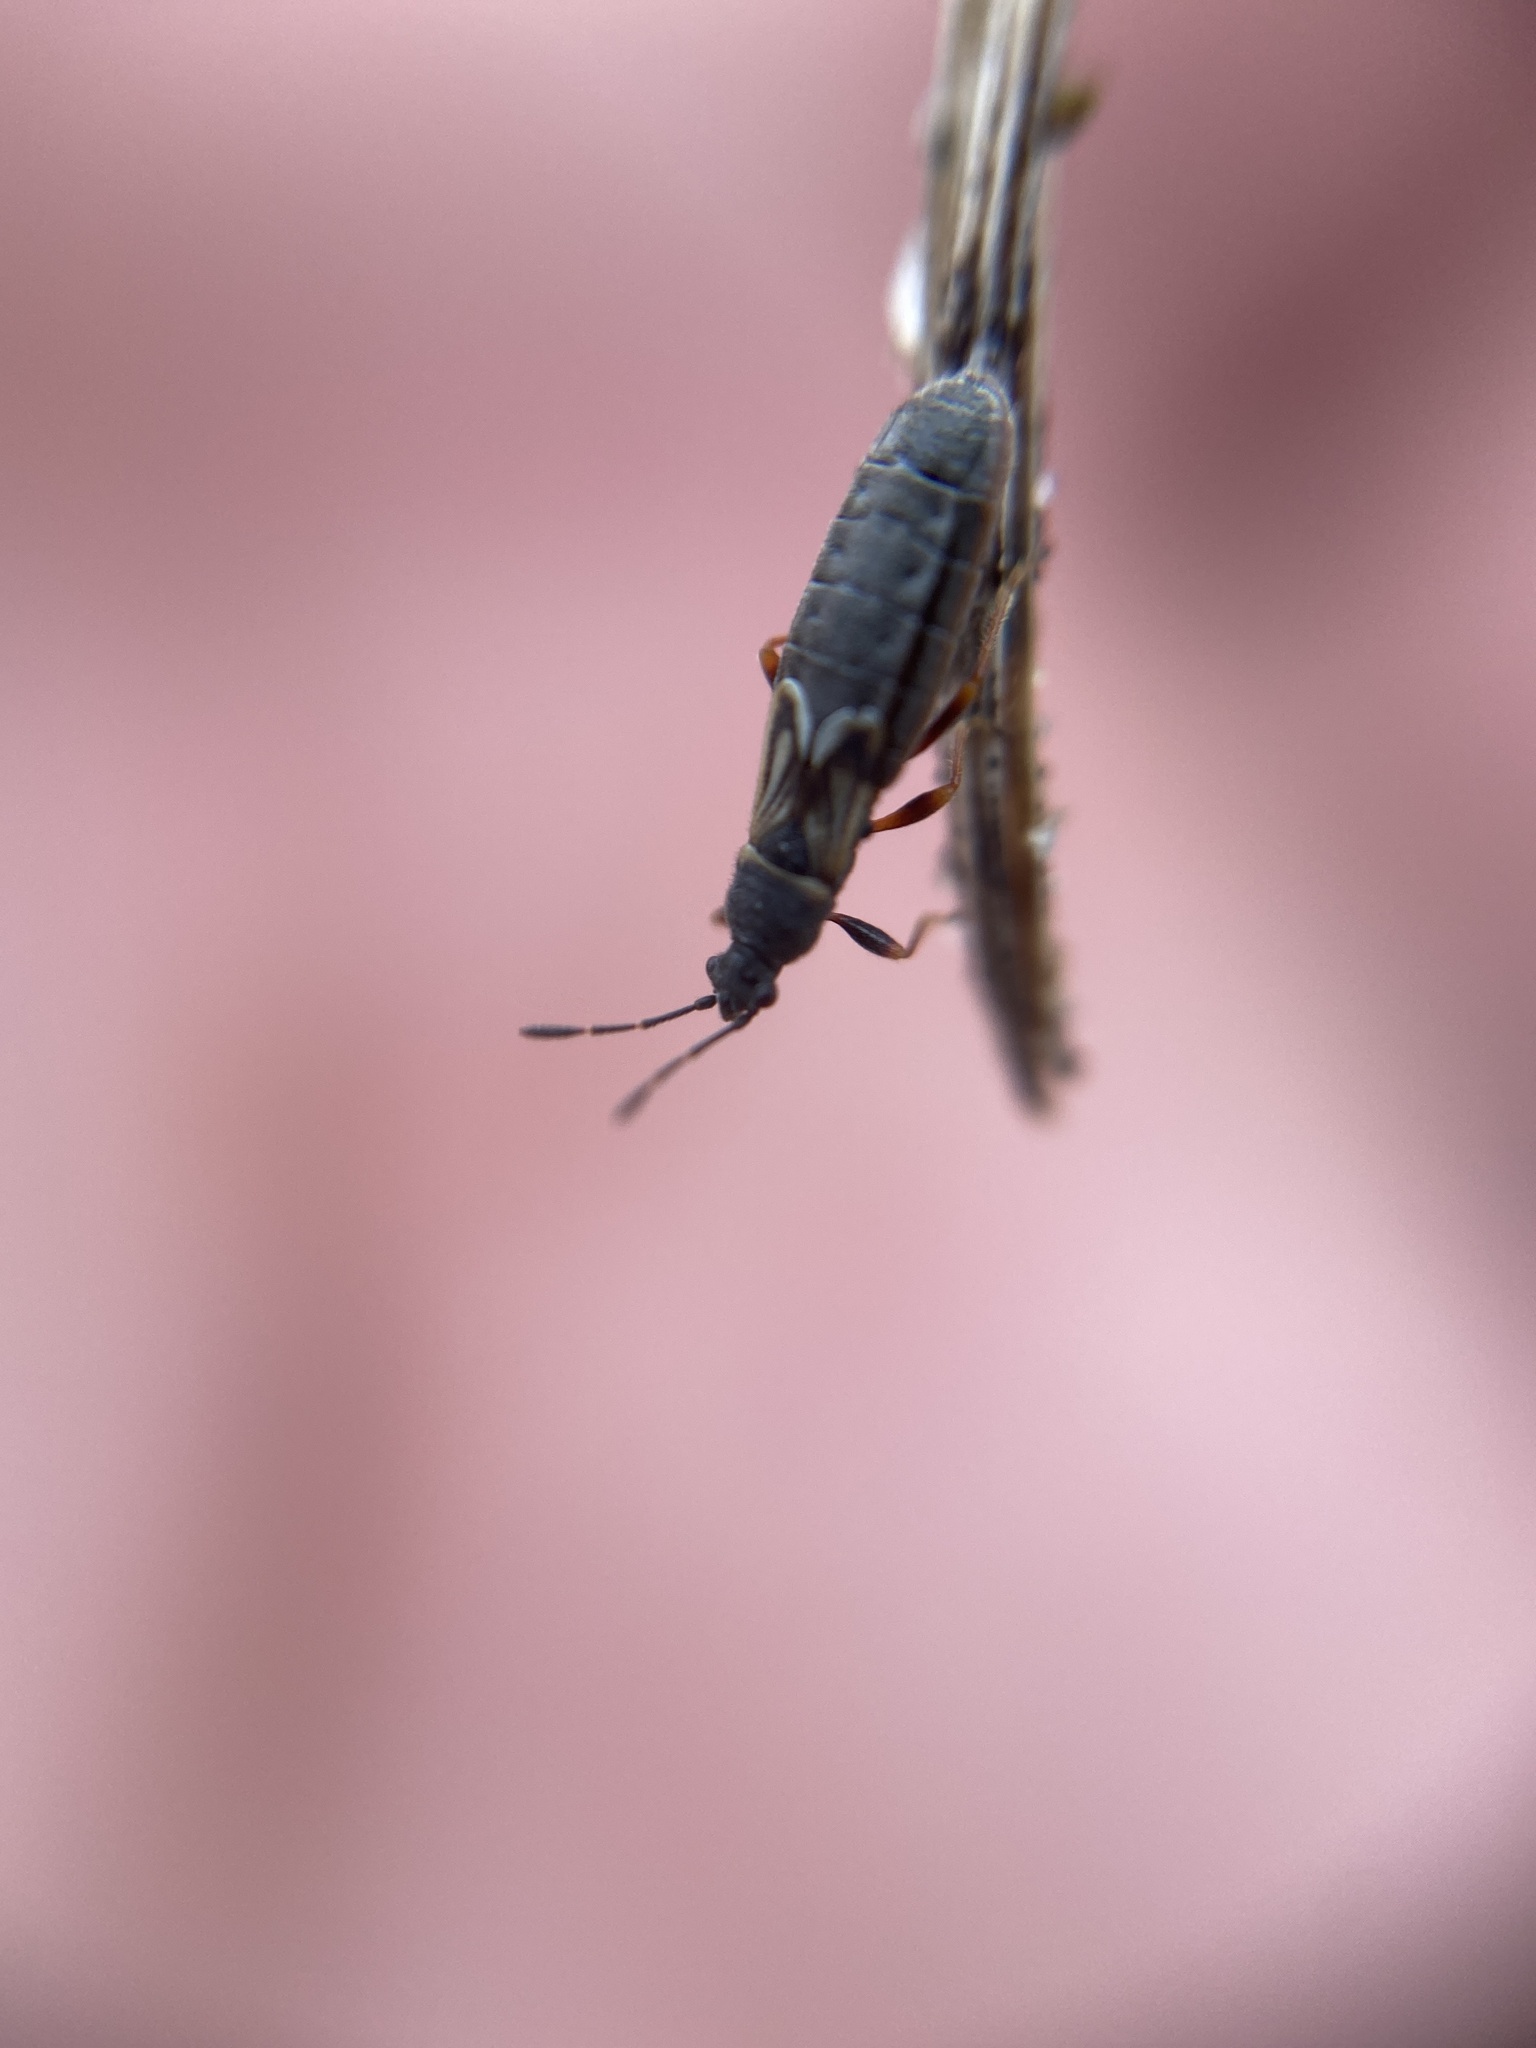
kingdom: Animalia
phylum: Arthropoda
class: Insecta
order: Hemiptera
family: Blissidae
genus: Ischnodemus
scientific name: Ischnodemus sabuleti
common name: European cinchbug
